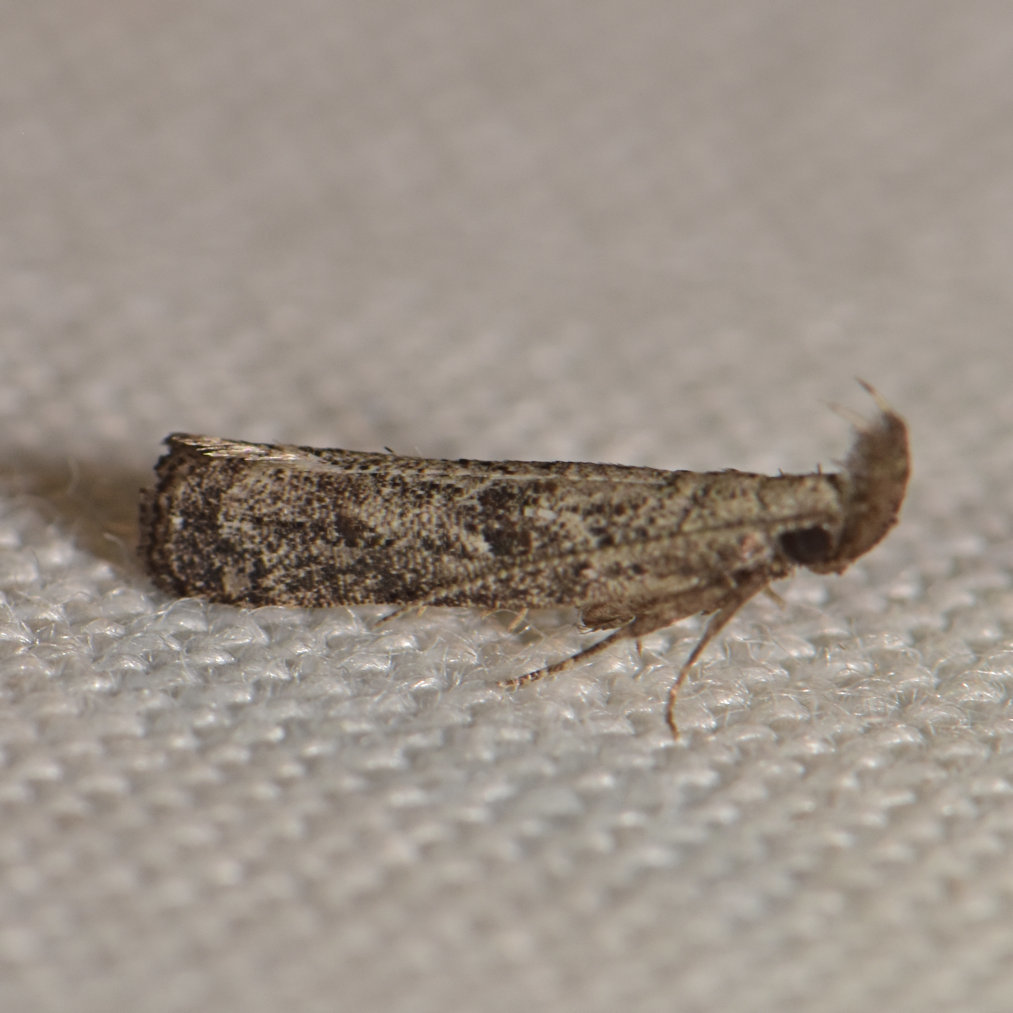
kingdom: Animalia
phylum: Arthropoda
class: Insecta
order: Lepidoptera
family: Gelechiidae
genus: Dichomeris
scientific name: Dichomeris inversella
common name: Inverse dichomeris moth
